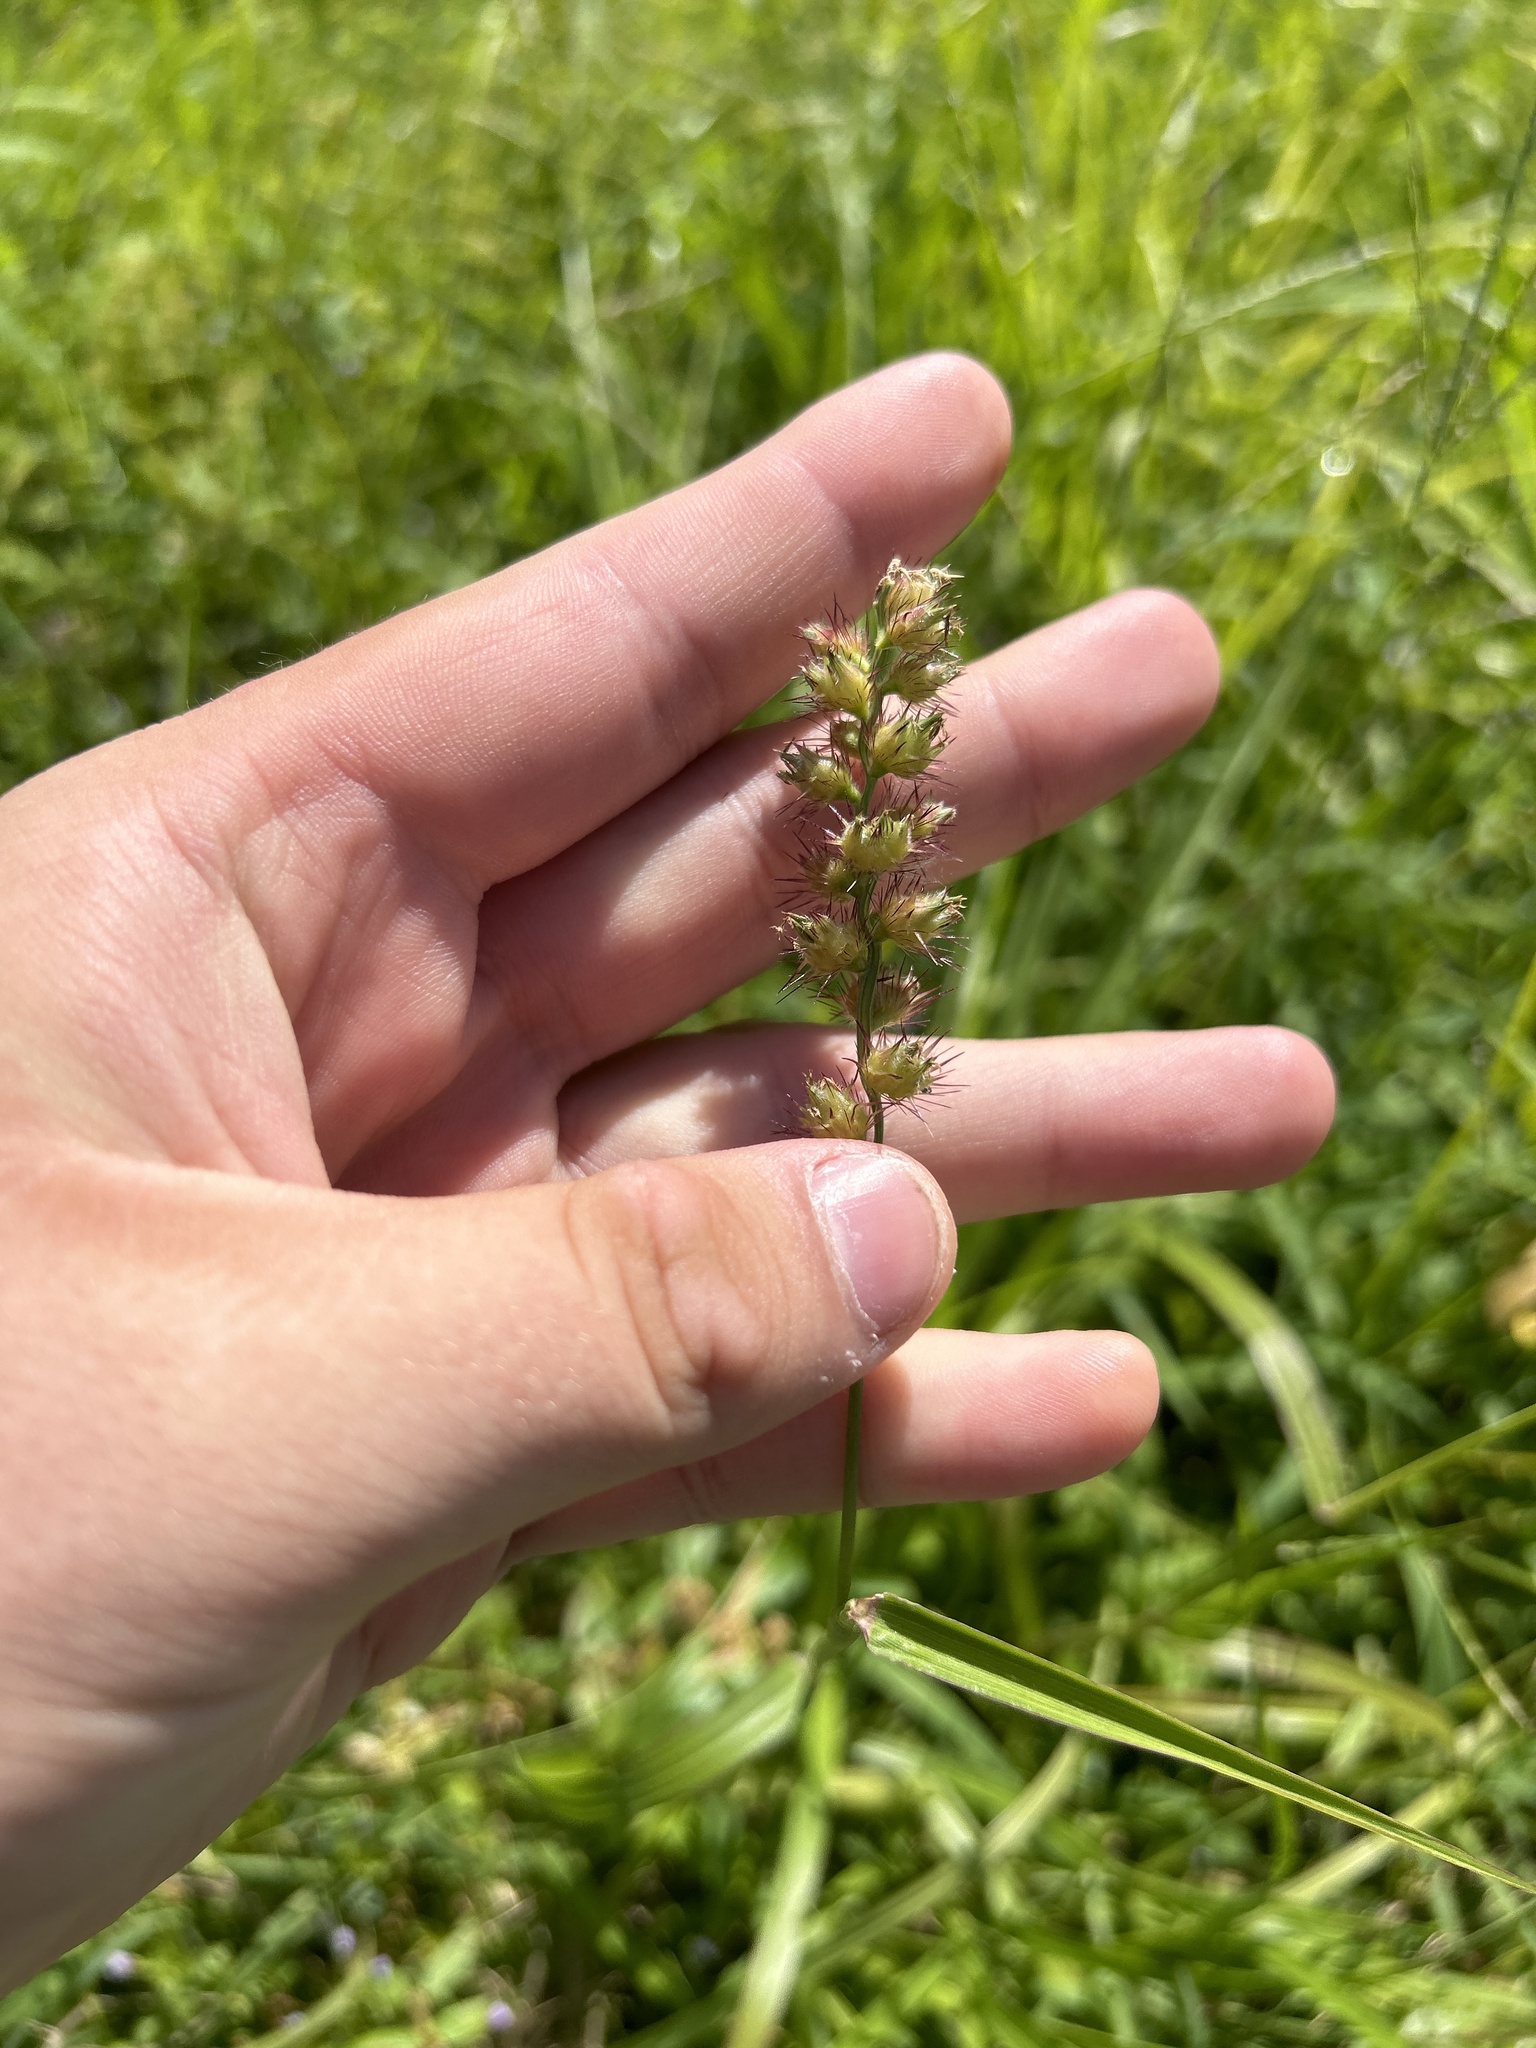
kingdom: Plantae
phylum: Tracheophyta
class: Liliopsida
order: Poales
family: Poaceae
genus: Cenchrus
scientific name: Cenchrus echinatus
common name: Southern sandbur
